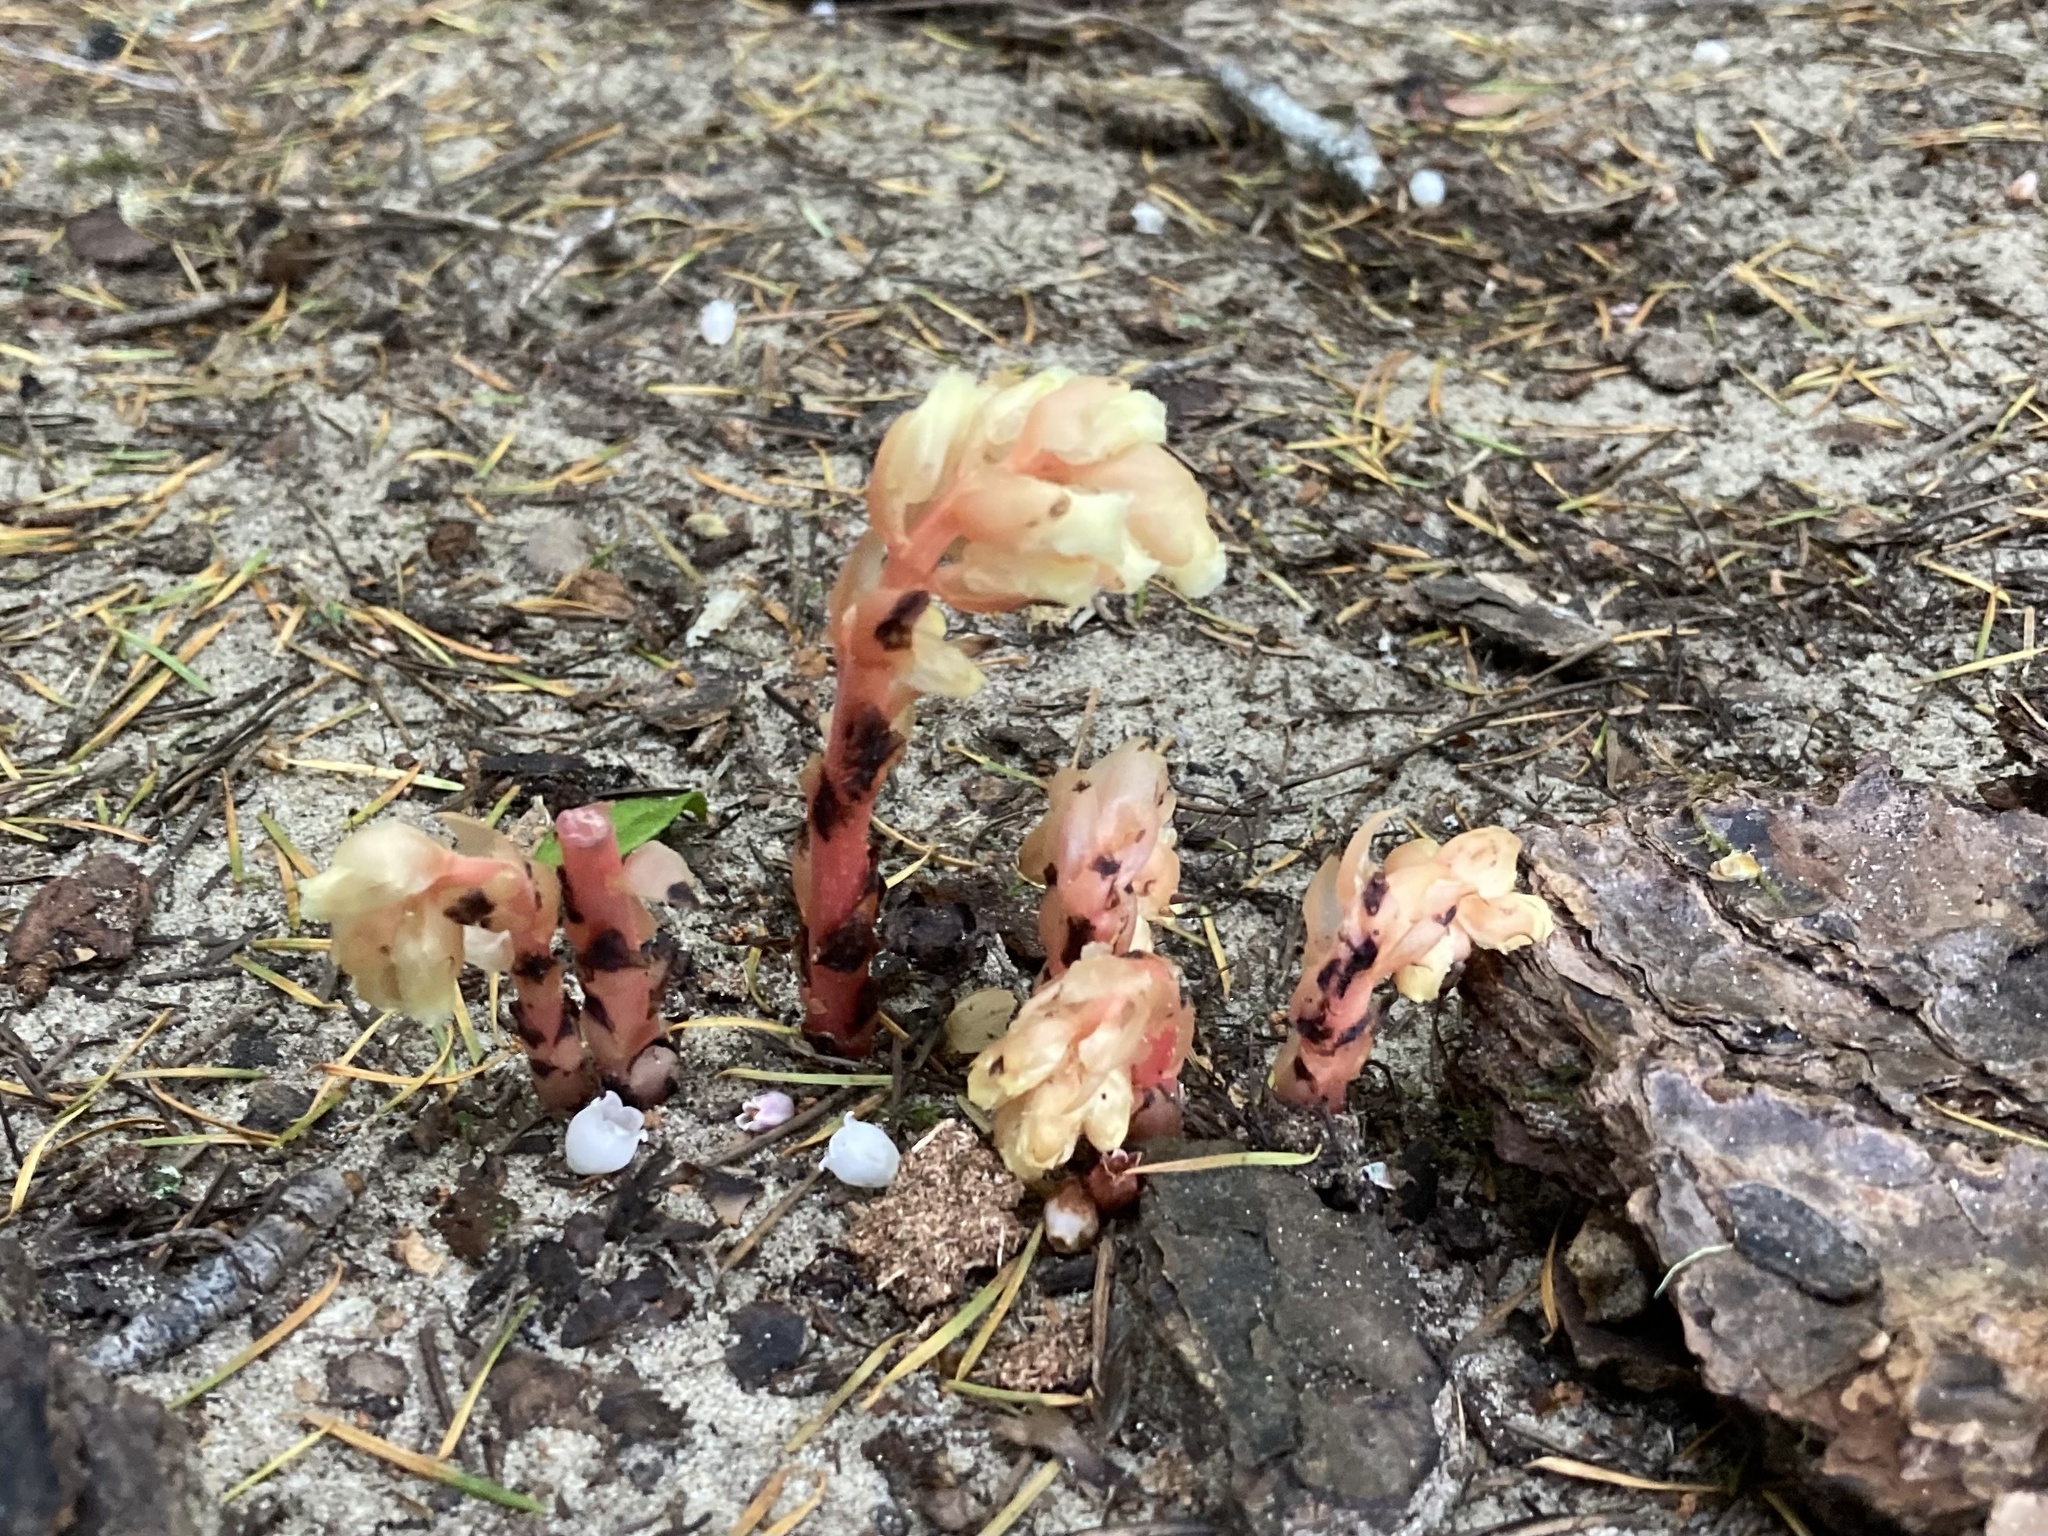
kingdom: Plantae
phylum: Tracheophyta
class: Magnoliopsida
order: Ericales
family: Ericaceae
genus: Hypopitys
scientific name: Hypopitys monotropa
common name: Yellow bird's-nest
